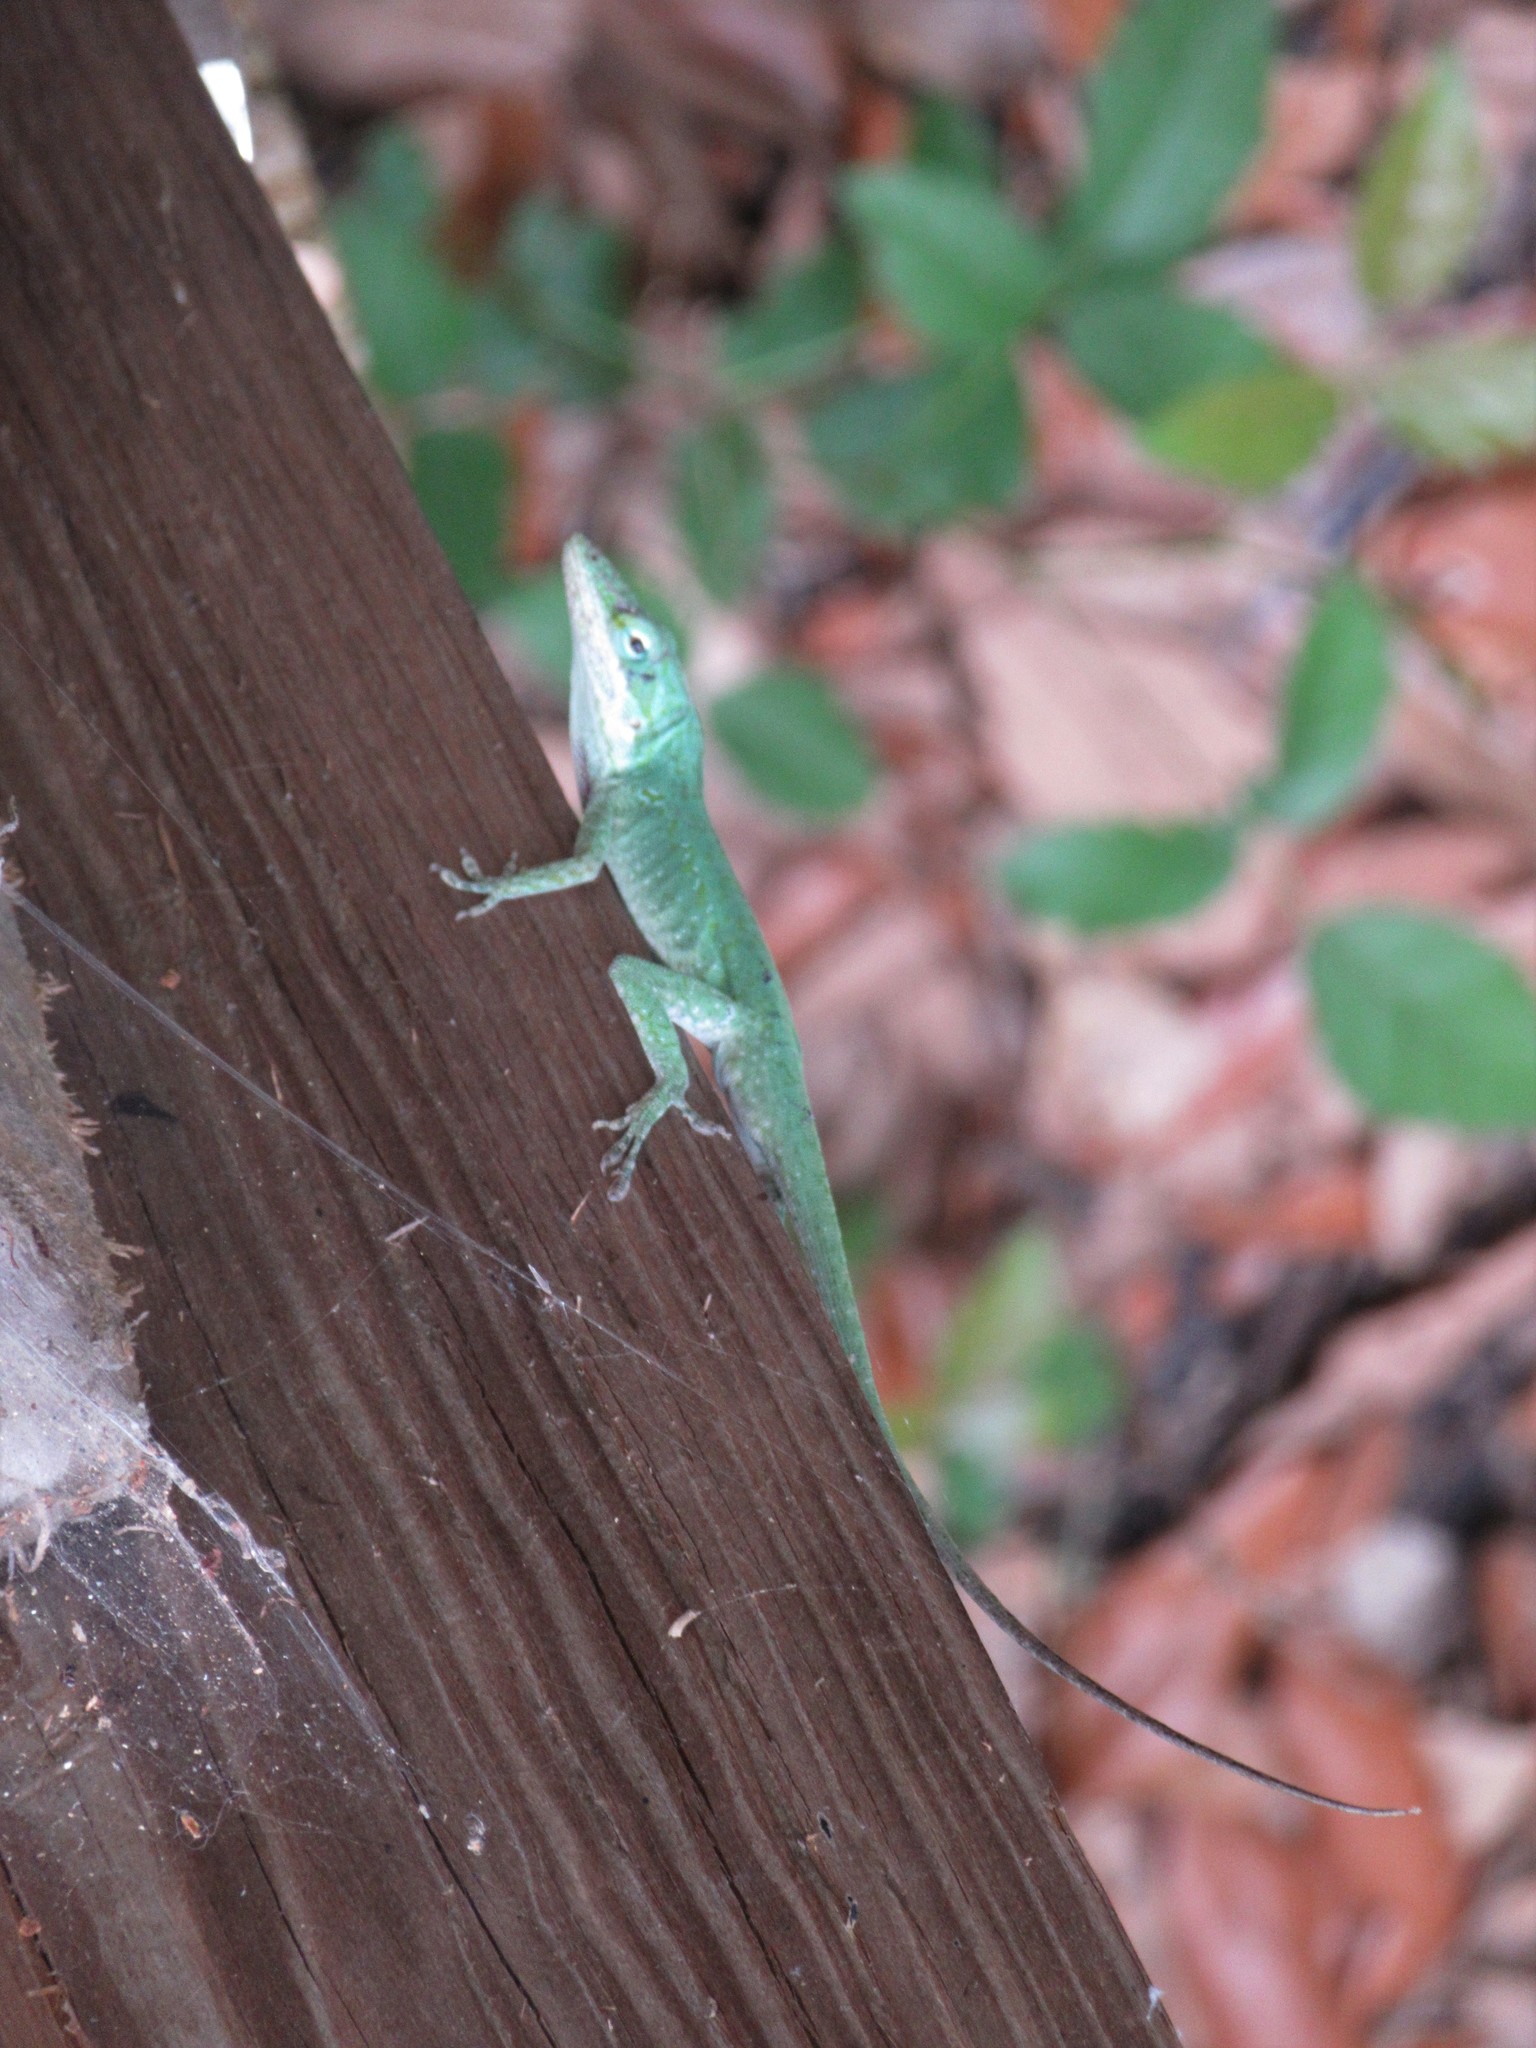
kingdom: Animalia
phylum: Chordata
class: Squamata
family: Dactyloidae
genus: Anolis
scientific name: Anolis carolinensis
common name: Green anole
